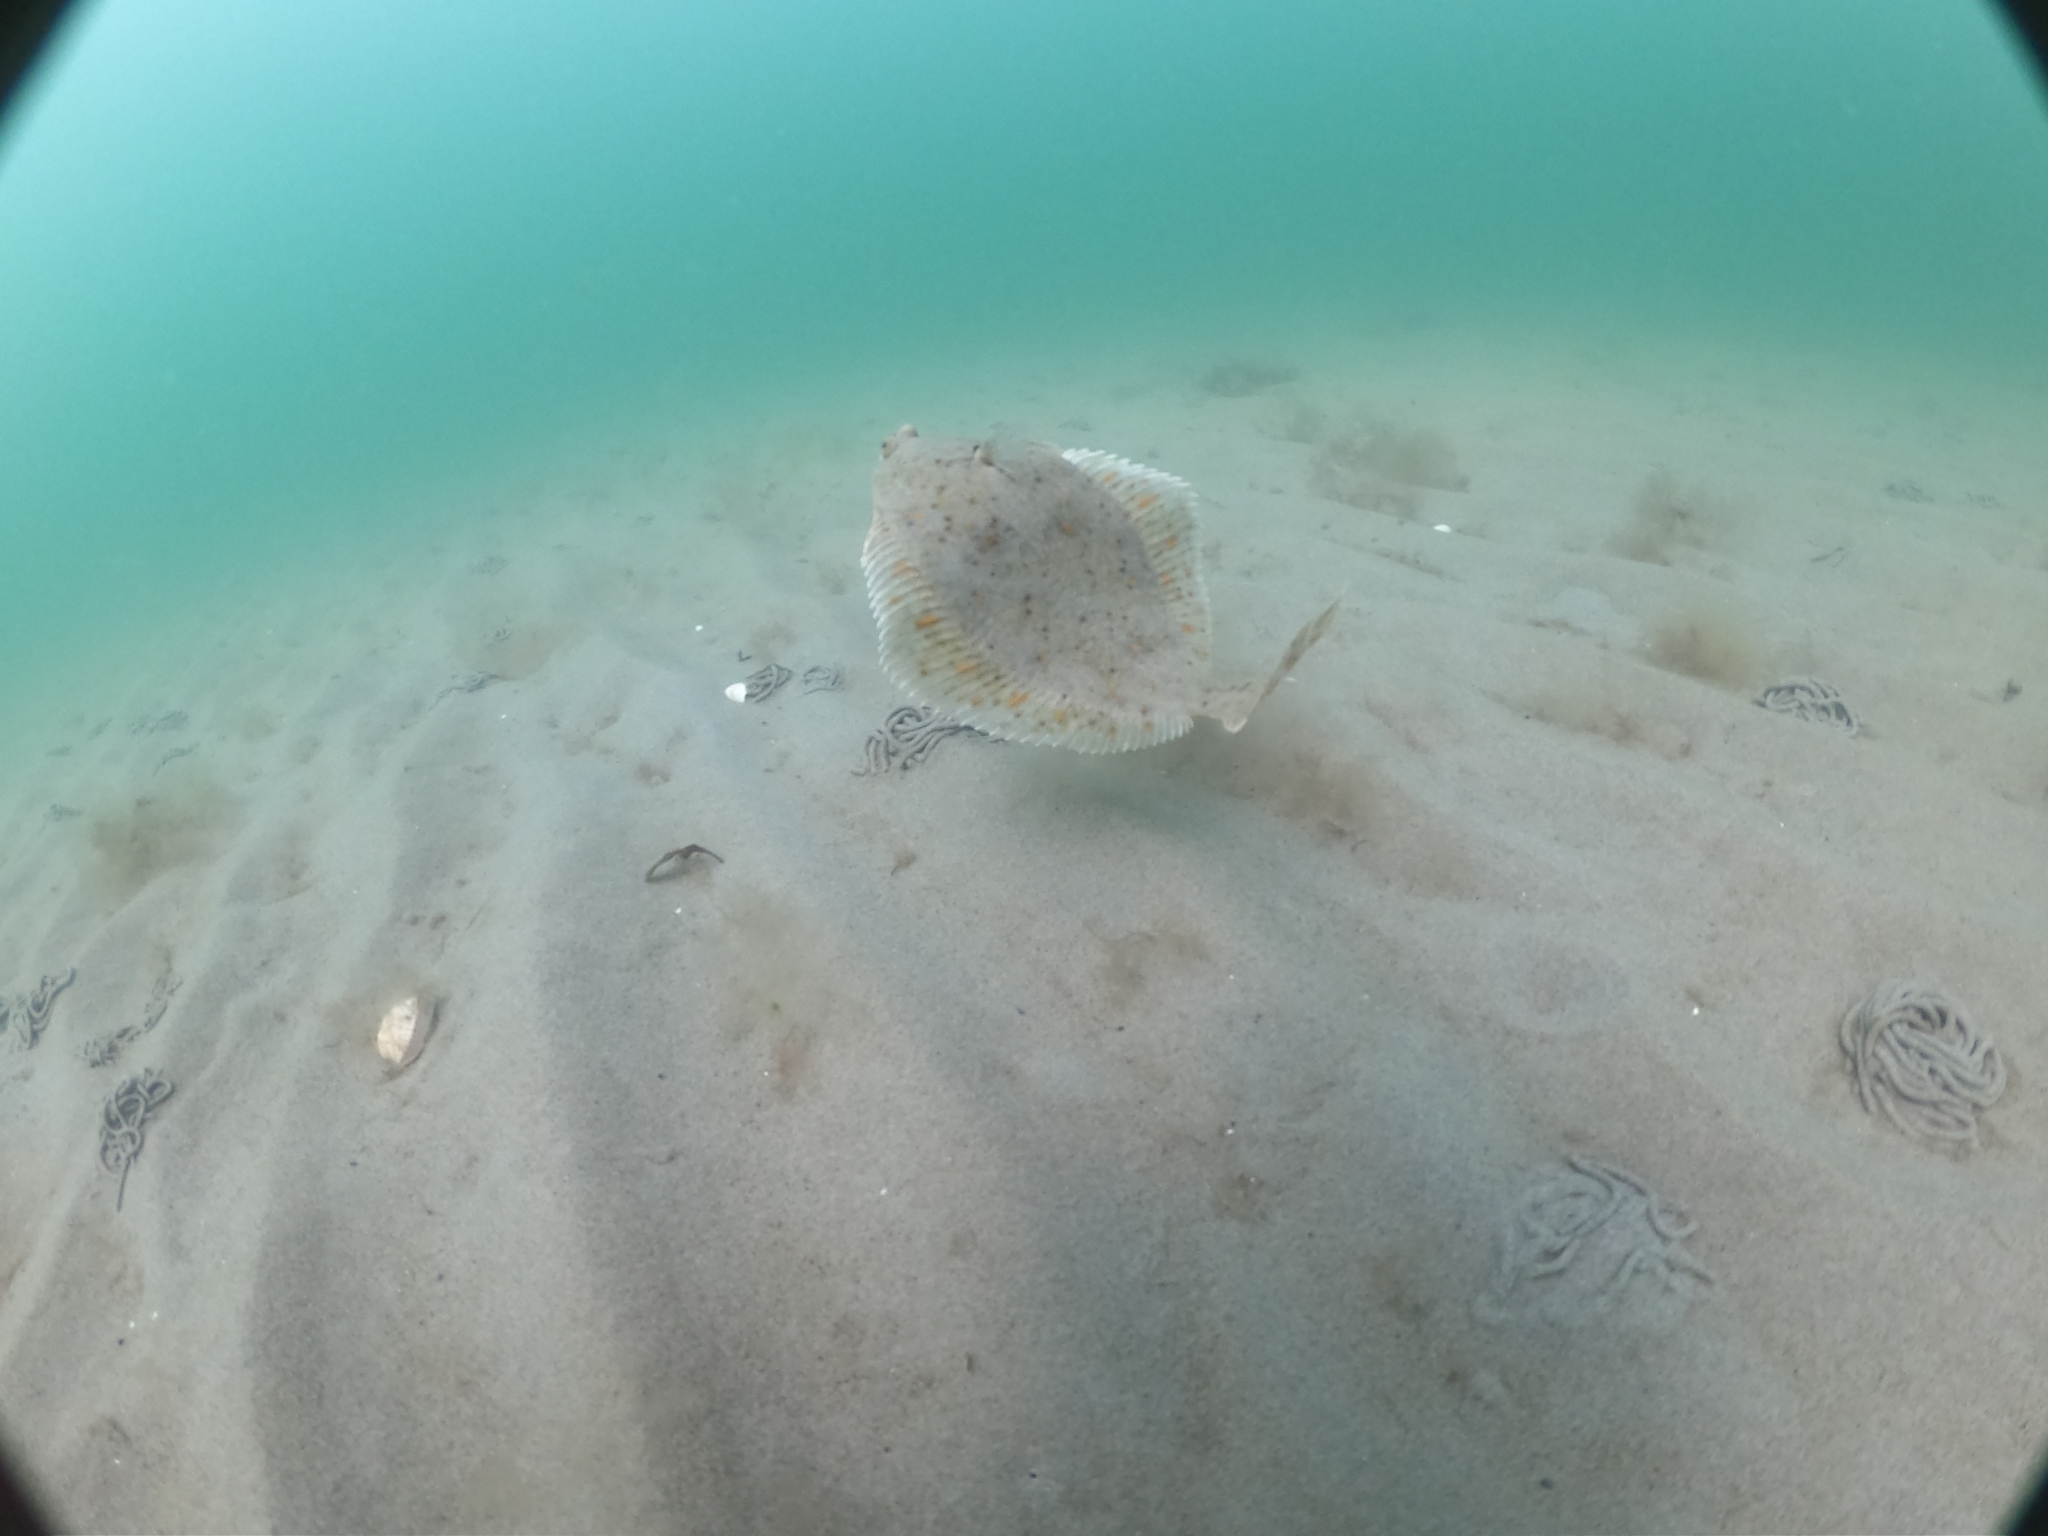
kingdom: Animalia
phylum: Chordata
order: Pleuronectiformes
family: Pleuronectidae
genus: Platichthys
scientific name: Platichthys flesus
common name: European flounder
